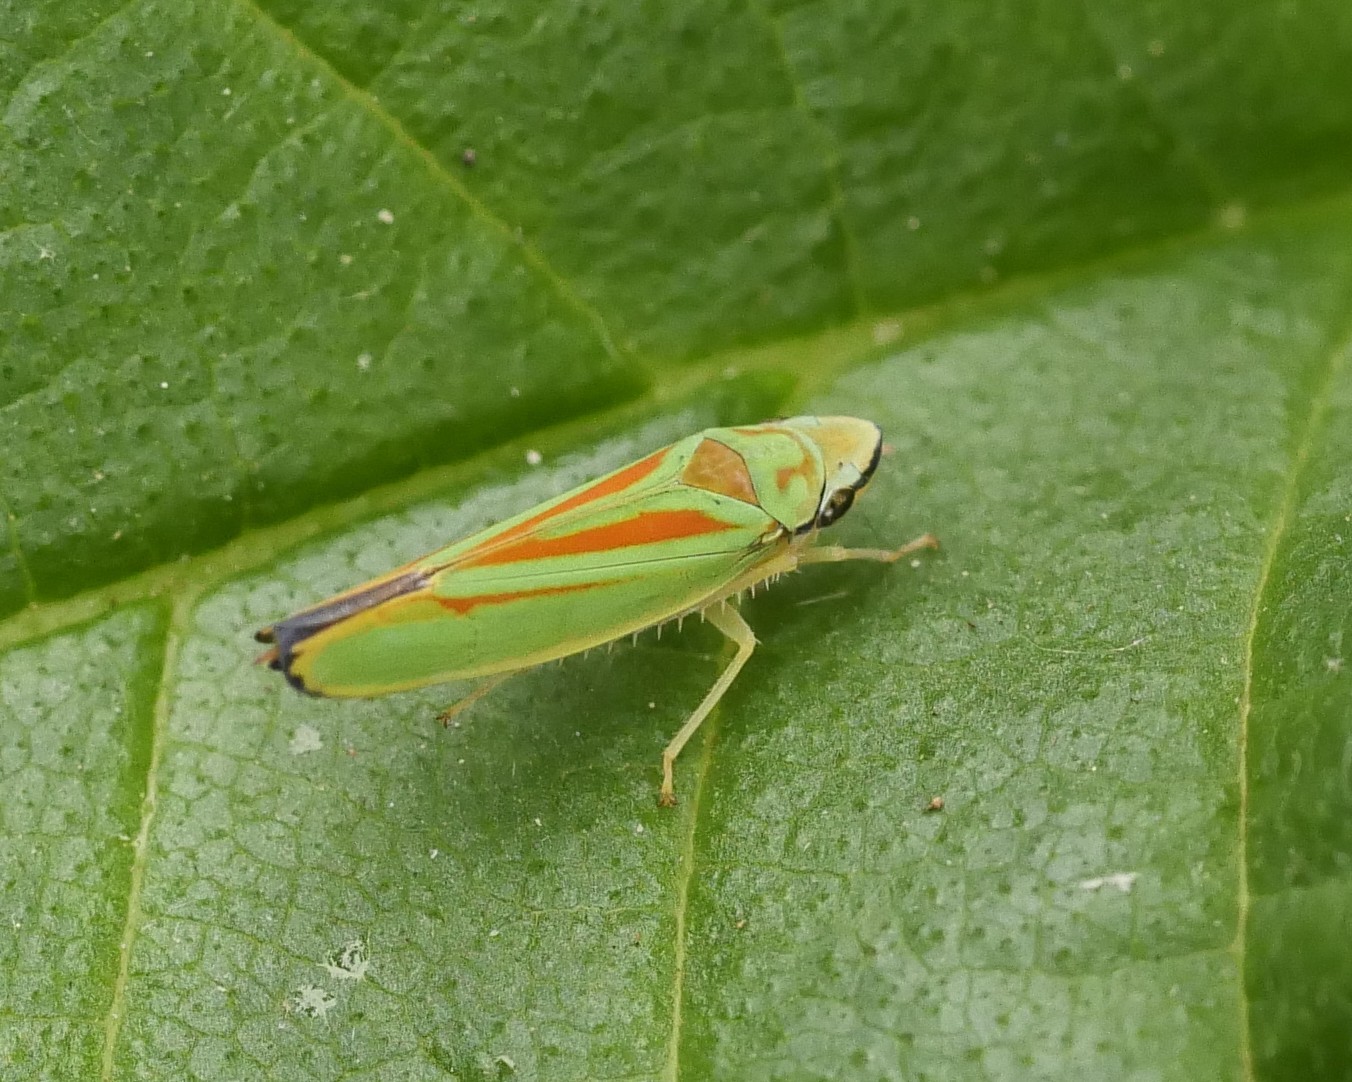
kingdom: Animalia
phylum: Arthropoda
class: Insecta
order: Hemiptera
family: Cicadellidae
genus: Graphocephala
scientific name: Graphocephala fennahi
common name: Rhododendron leafhopper
